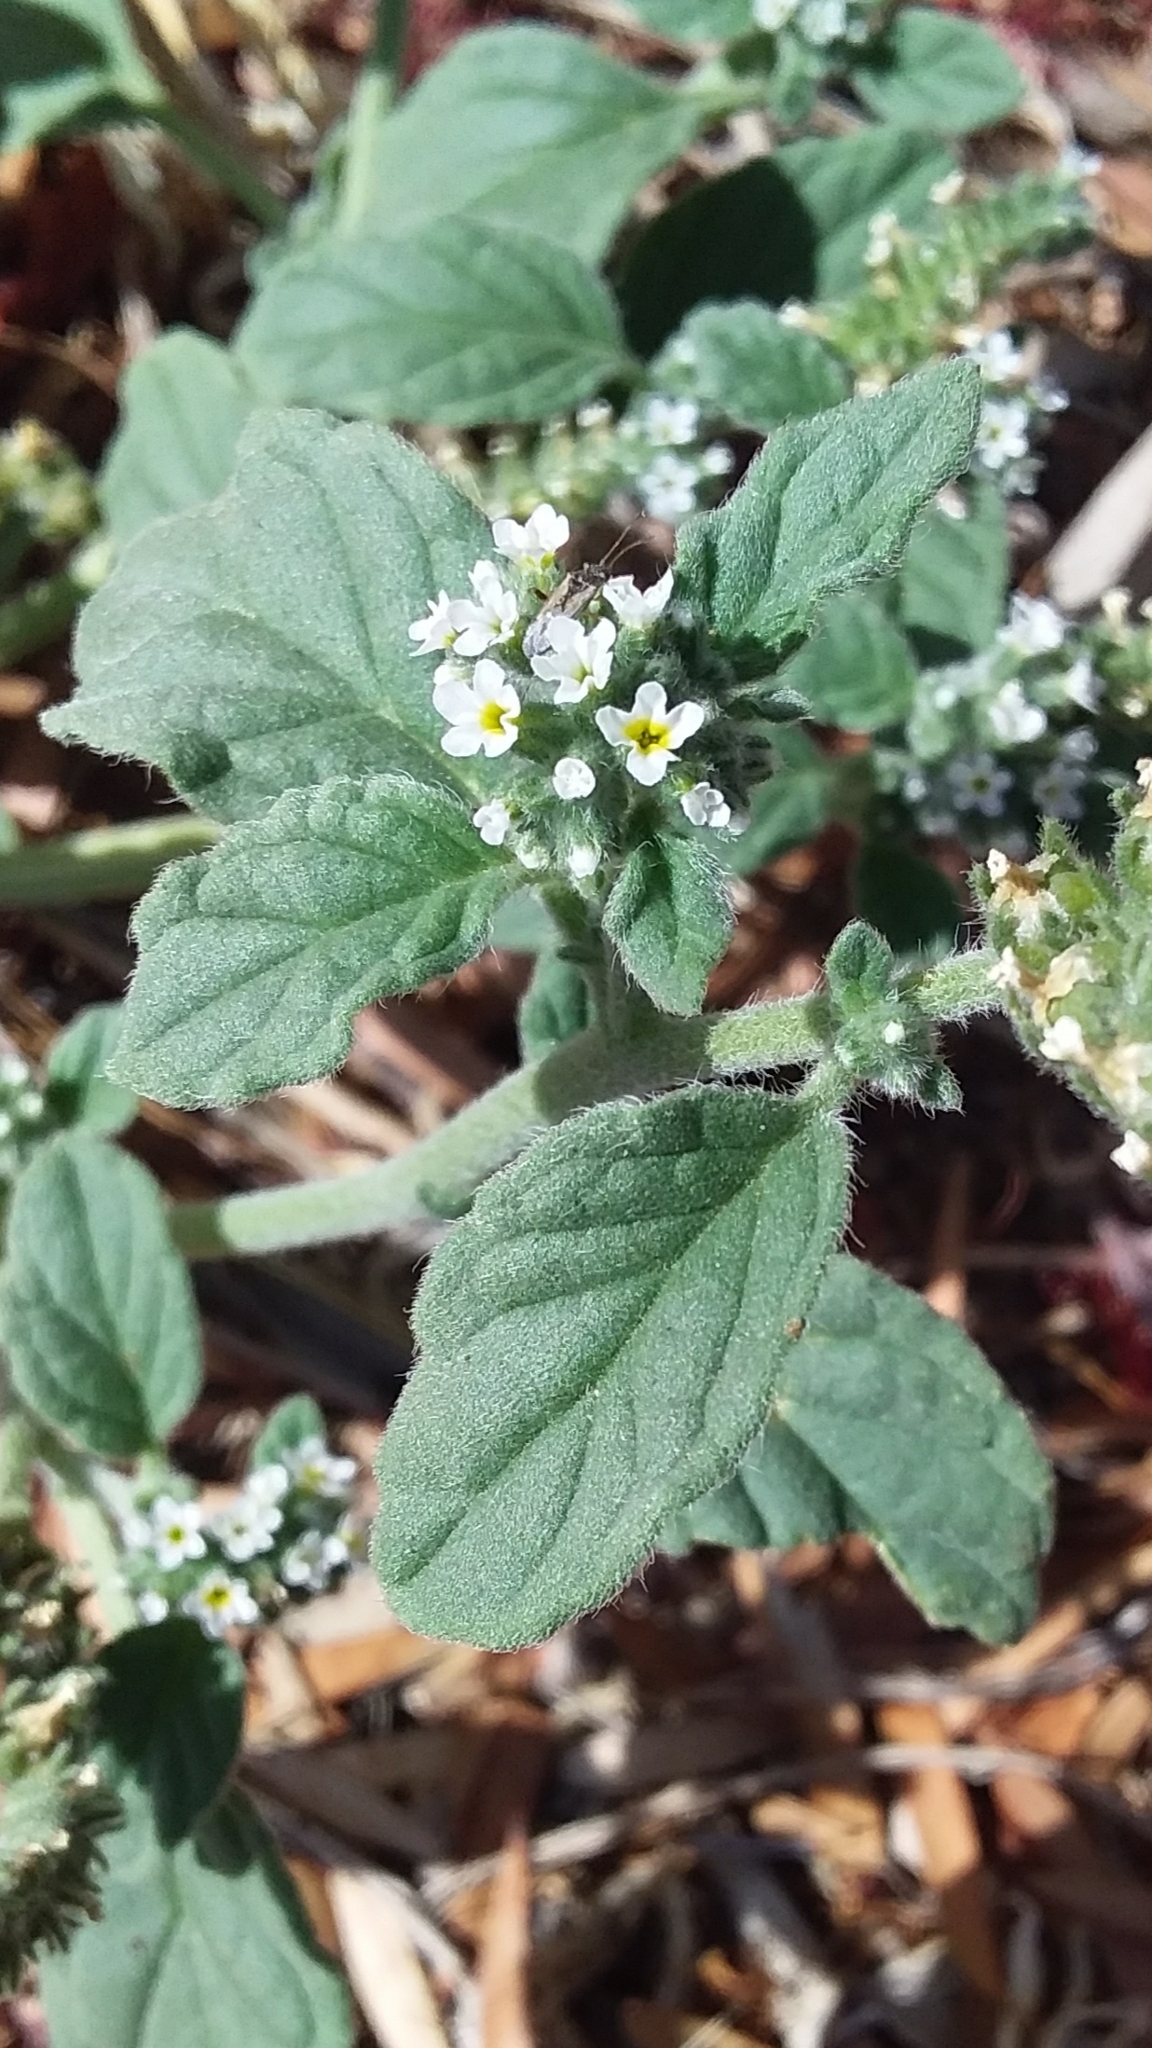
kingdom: Plantae
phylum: Tracheophyta
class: Magnoliopsida
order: Boraginales
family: Heliotropiaceae
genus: Heliotropium
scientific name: Heliotropium europaeum
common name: European heliotrope
